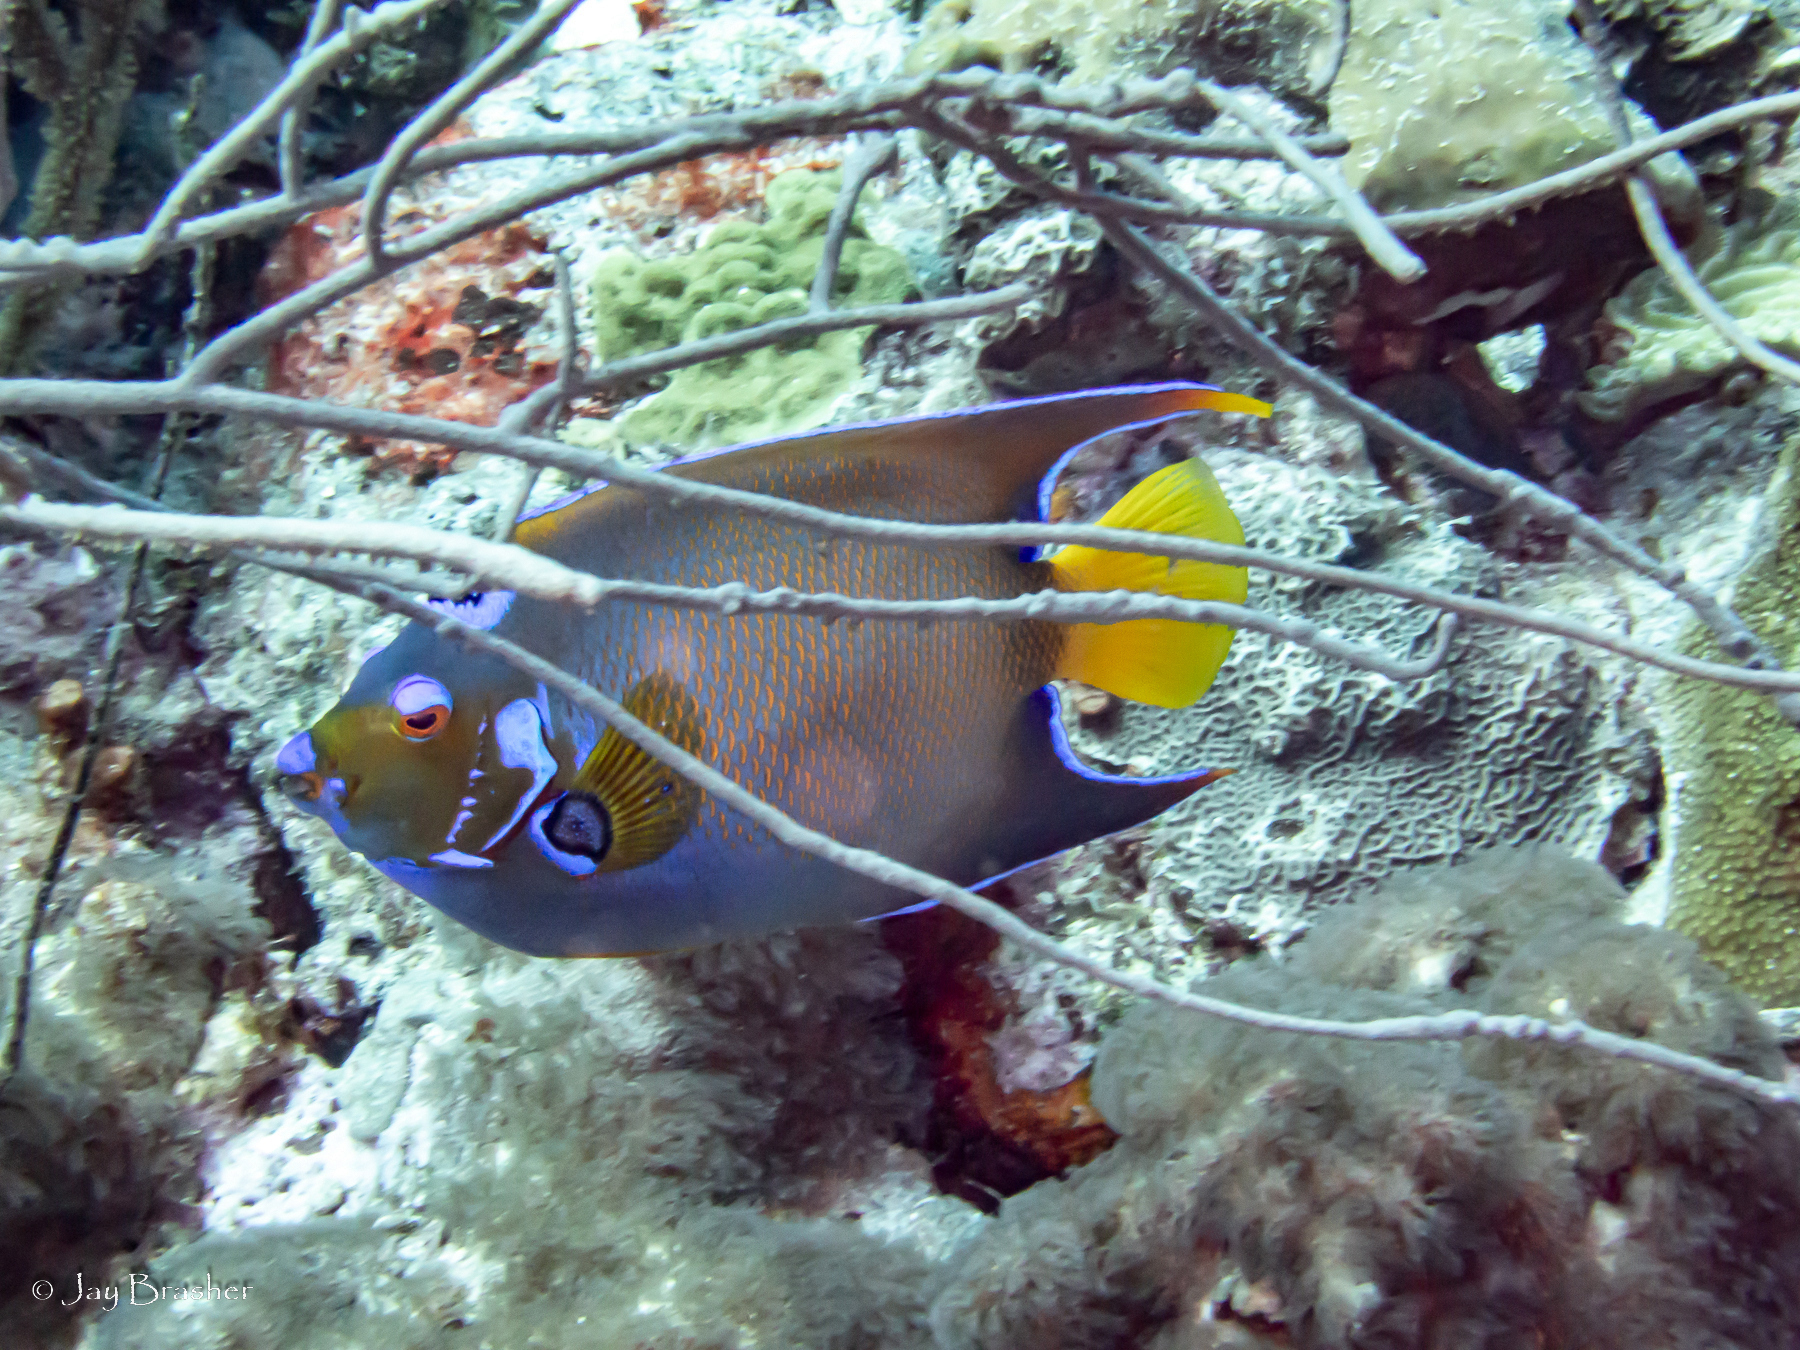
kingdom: Animalia
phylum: Chordata
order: Perciformes
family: Pomacanthidae
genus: Holacanthus
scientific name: Holacanthus ciliaris
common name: Queen angelfish
